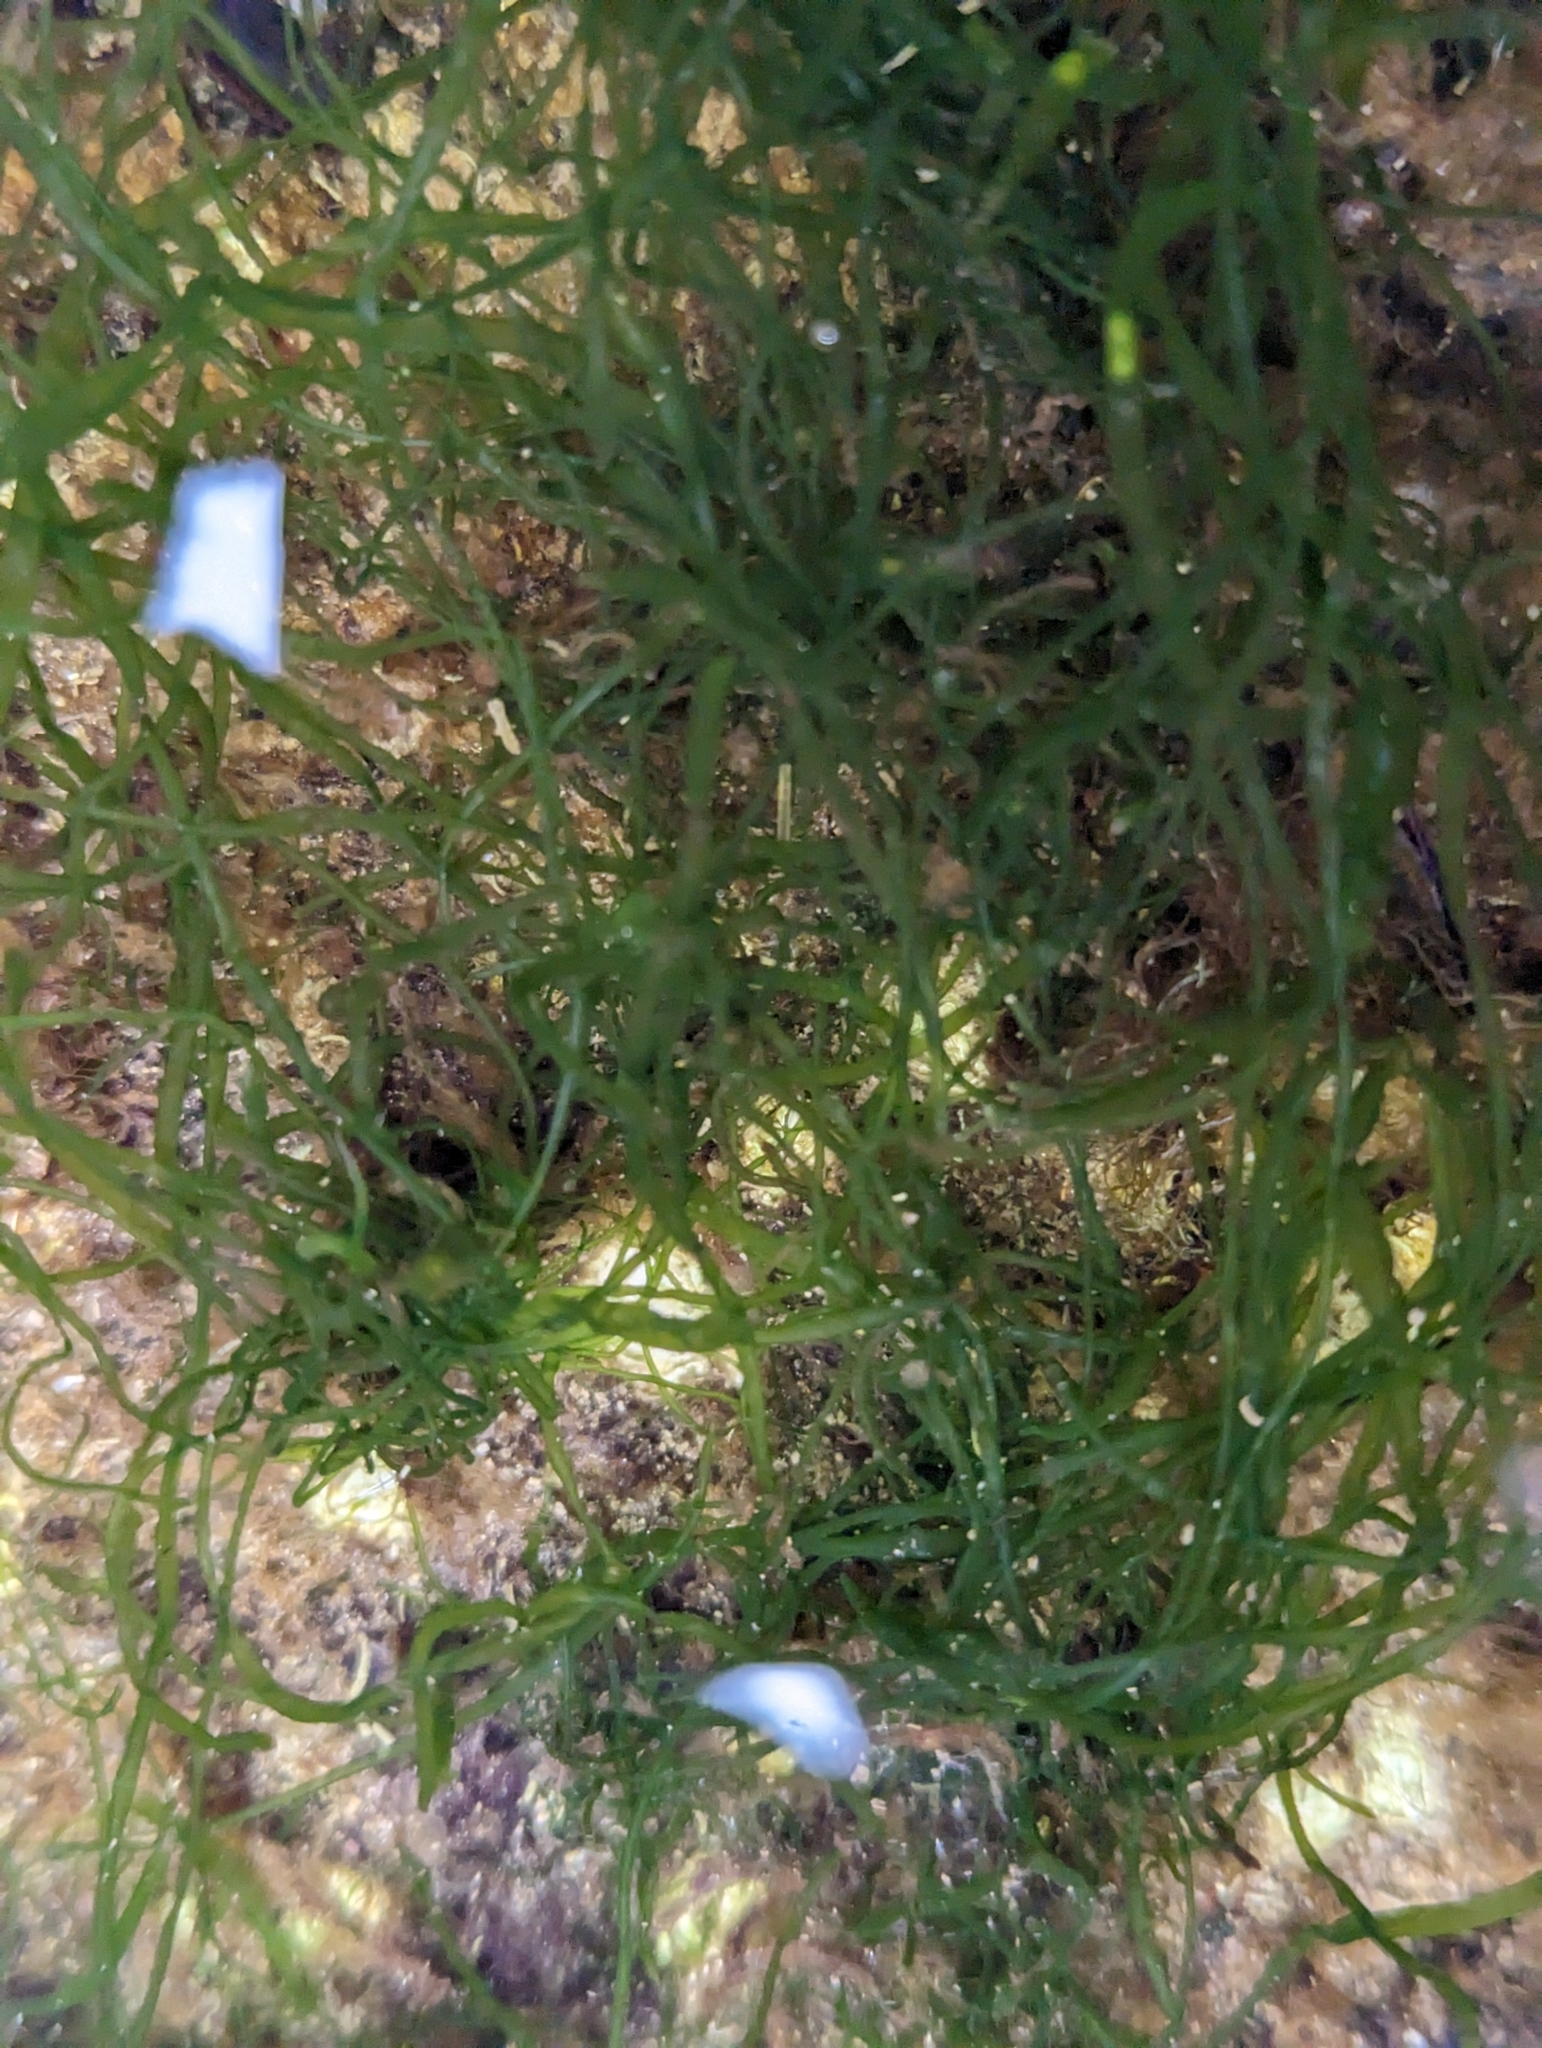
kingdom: Plantae
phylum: Chlorophyta
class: Ulvophyceae
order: Ulvales
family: Ulvaceae
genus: Ulva
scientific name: Ulva intestinalis
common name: Gut weed
